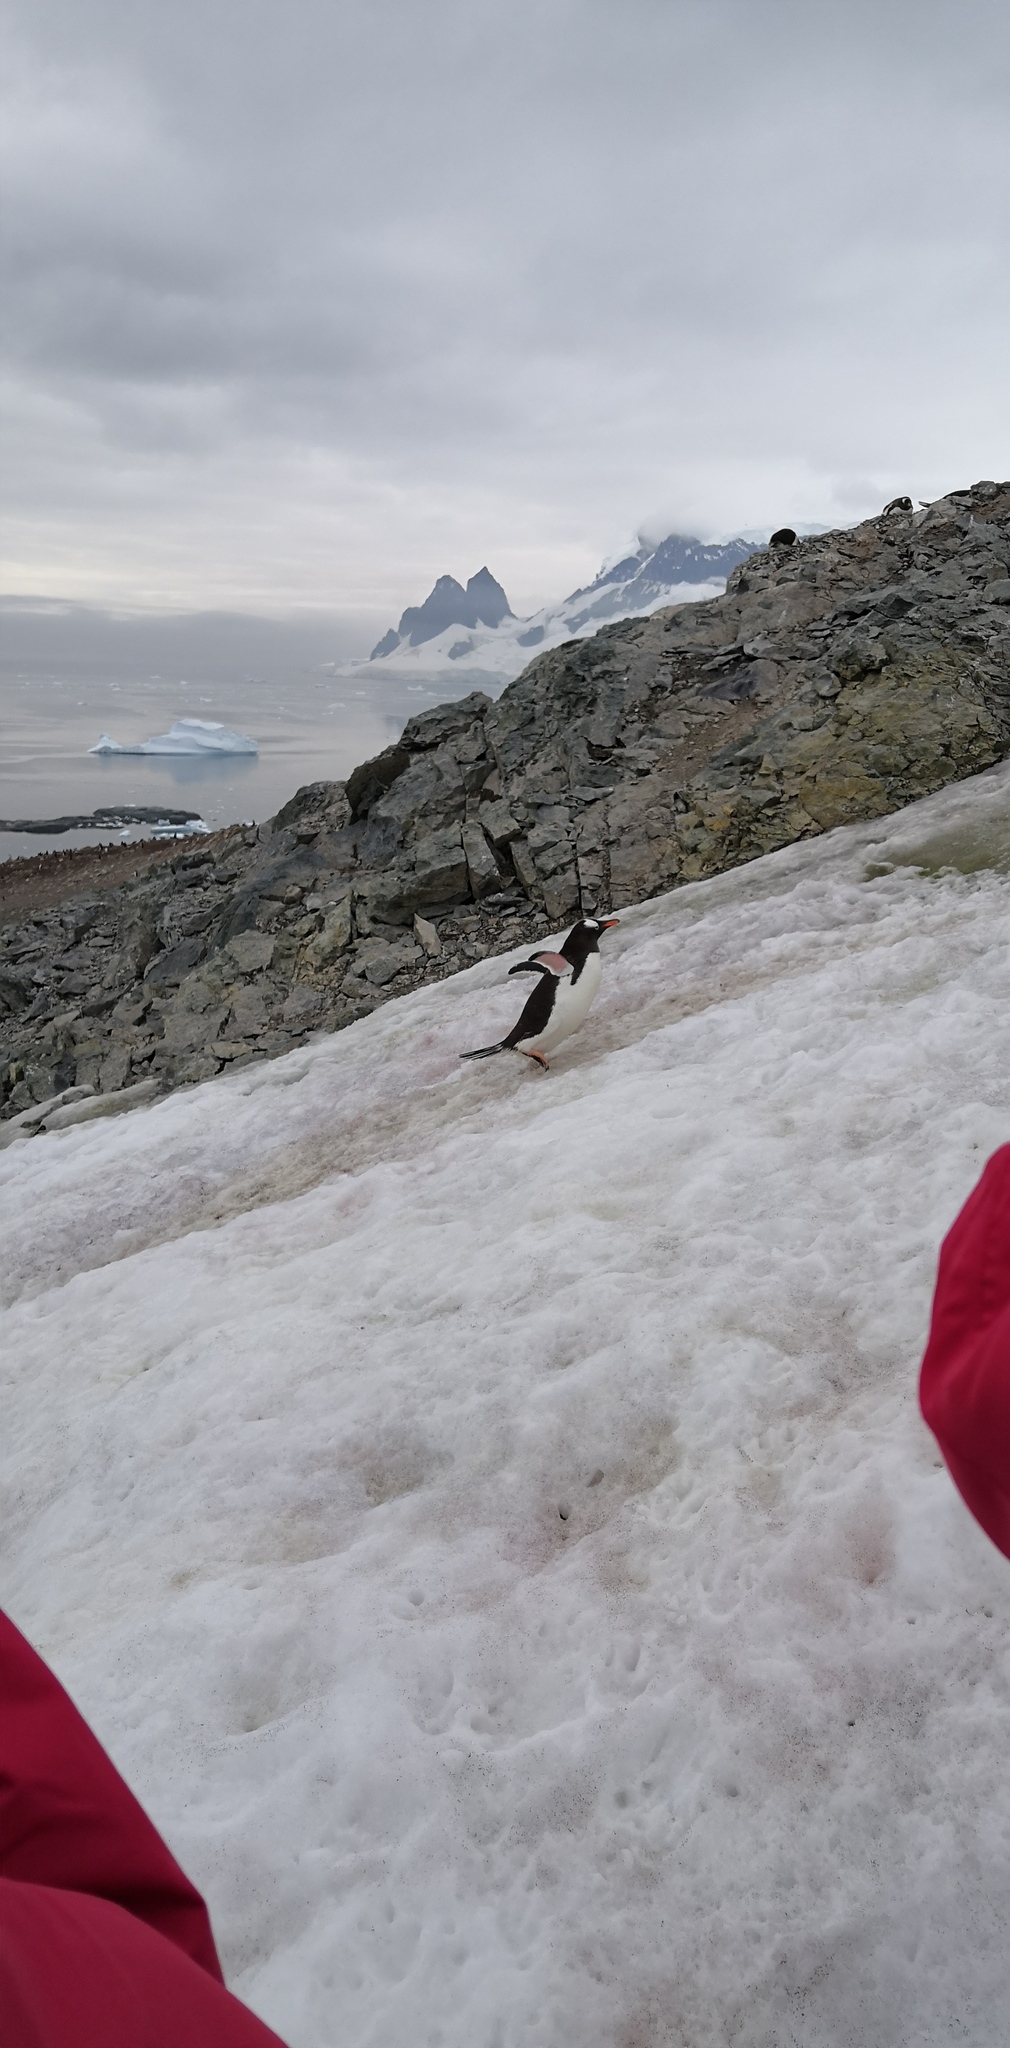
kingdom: Animalia
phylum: Chordata
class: Aves
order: Sphenisciformes
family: Spheniscidae
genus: Pygoscelis
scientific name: Pygoscelis papua
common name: Gentoo penguin
